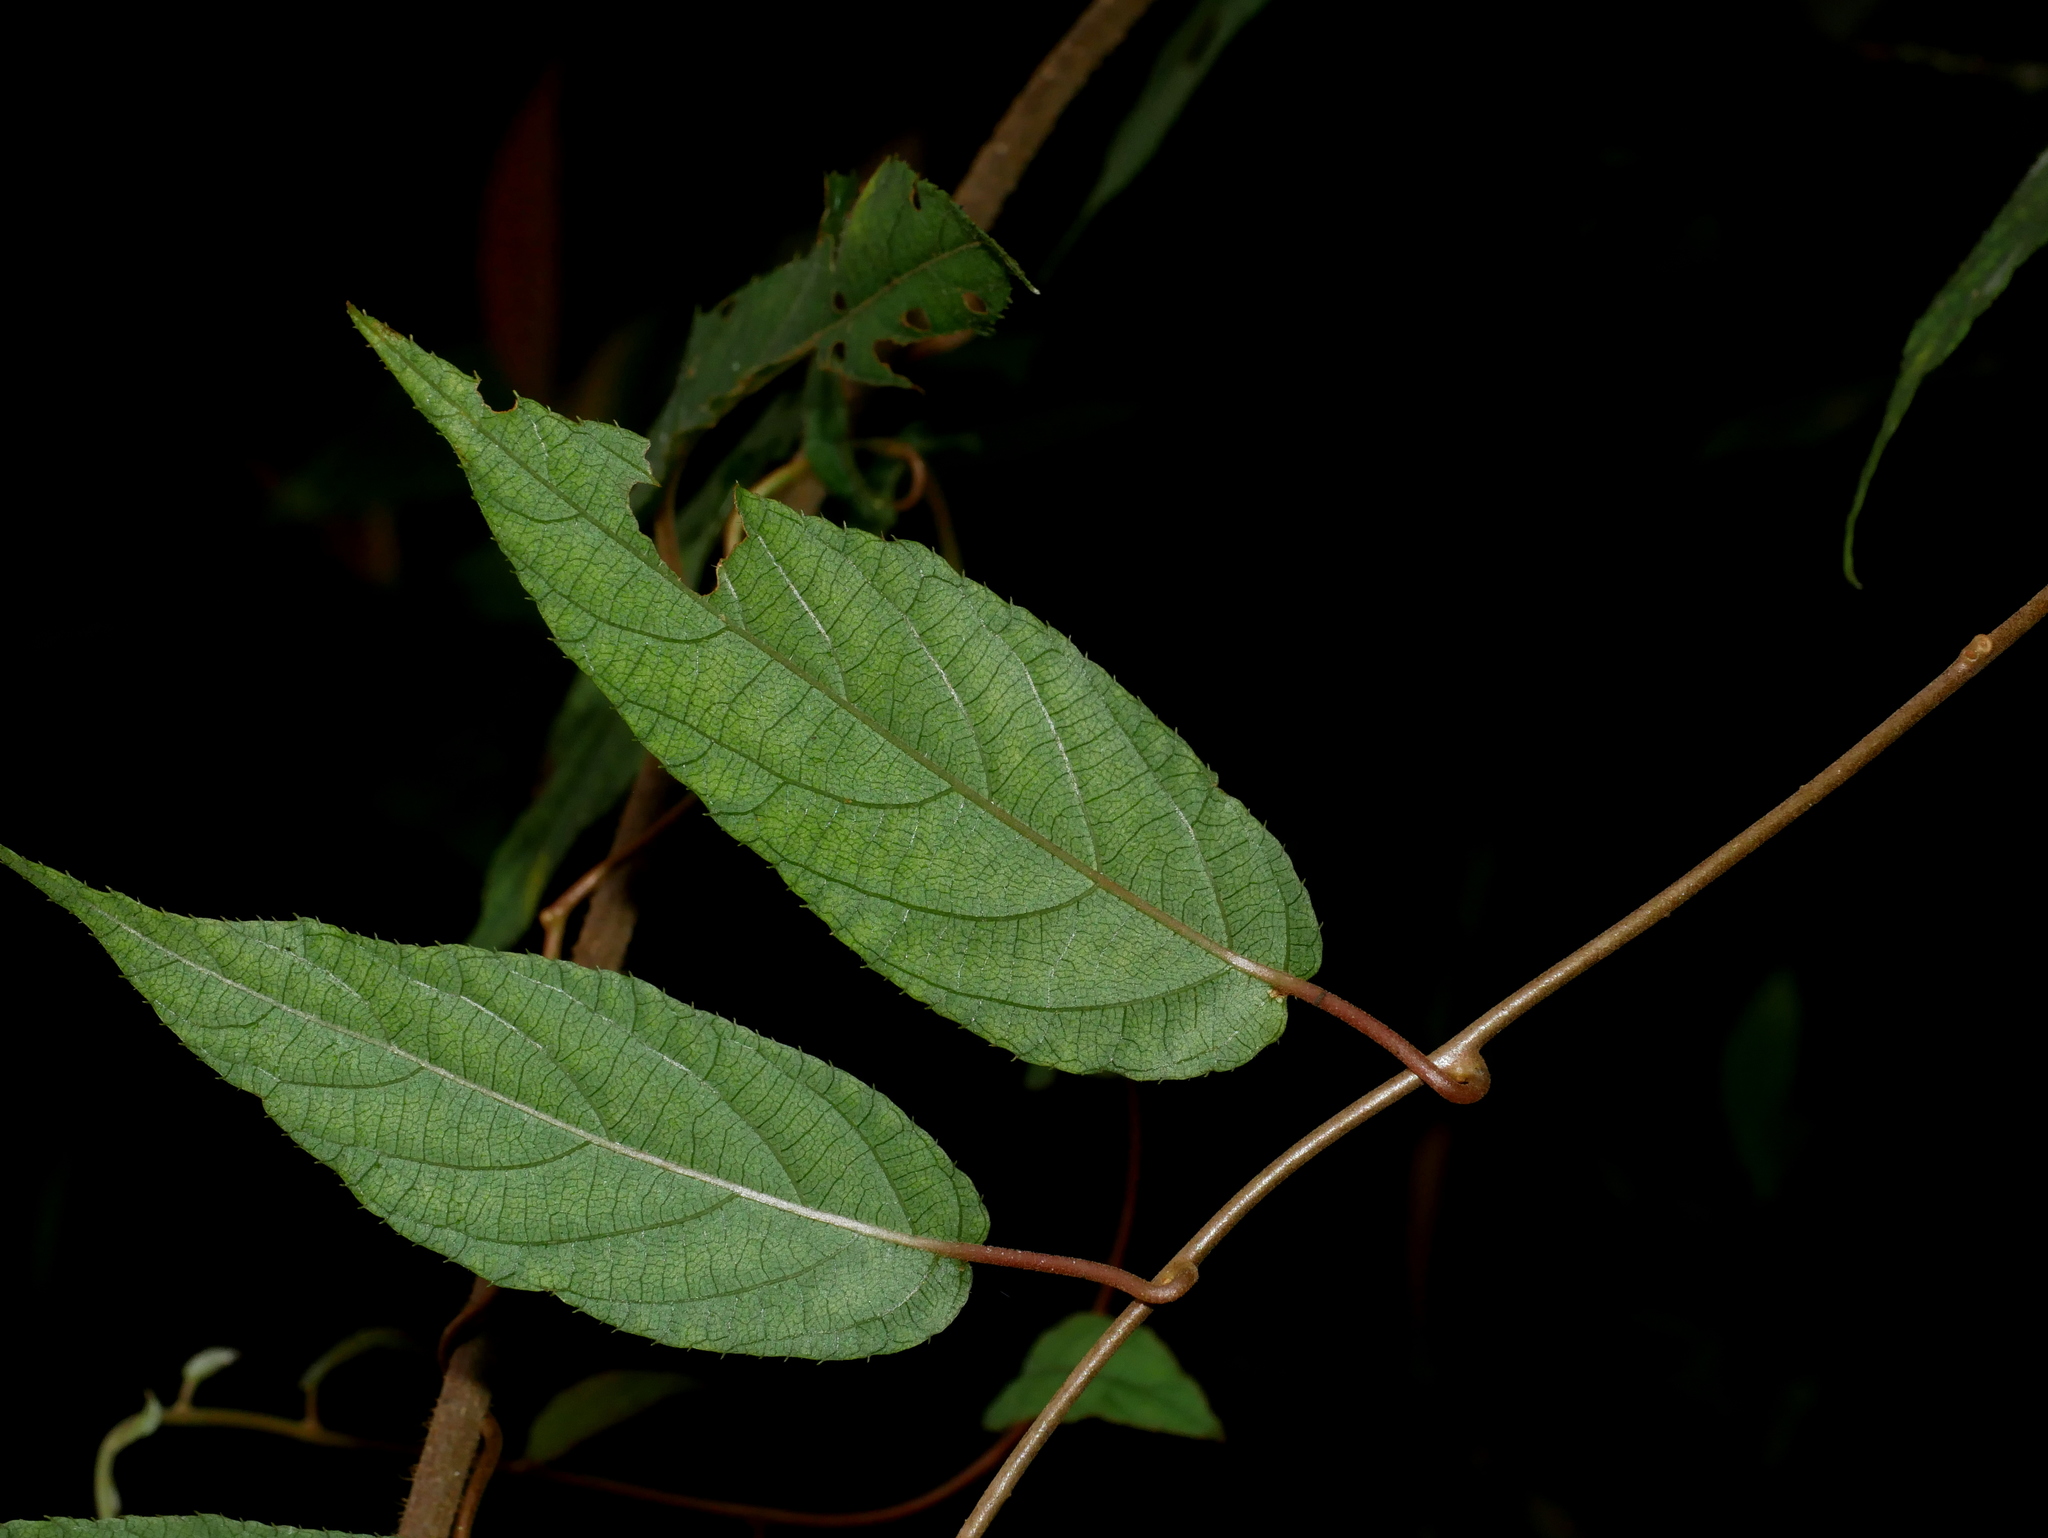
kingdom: Plantae
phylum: Tracheophyta
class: Magnoliopsida
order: Ericales
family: Actinidiaceae
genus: Actinidia
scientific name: Actinidia rufa
